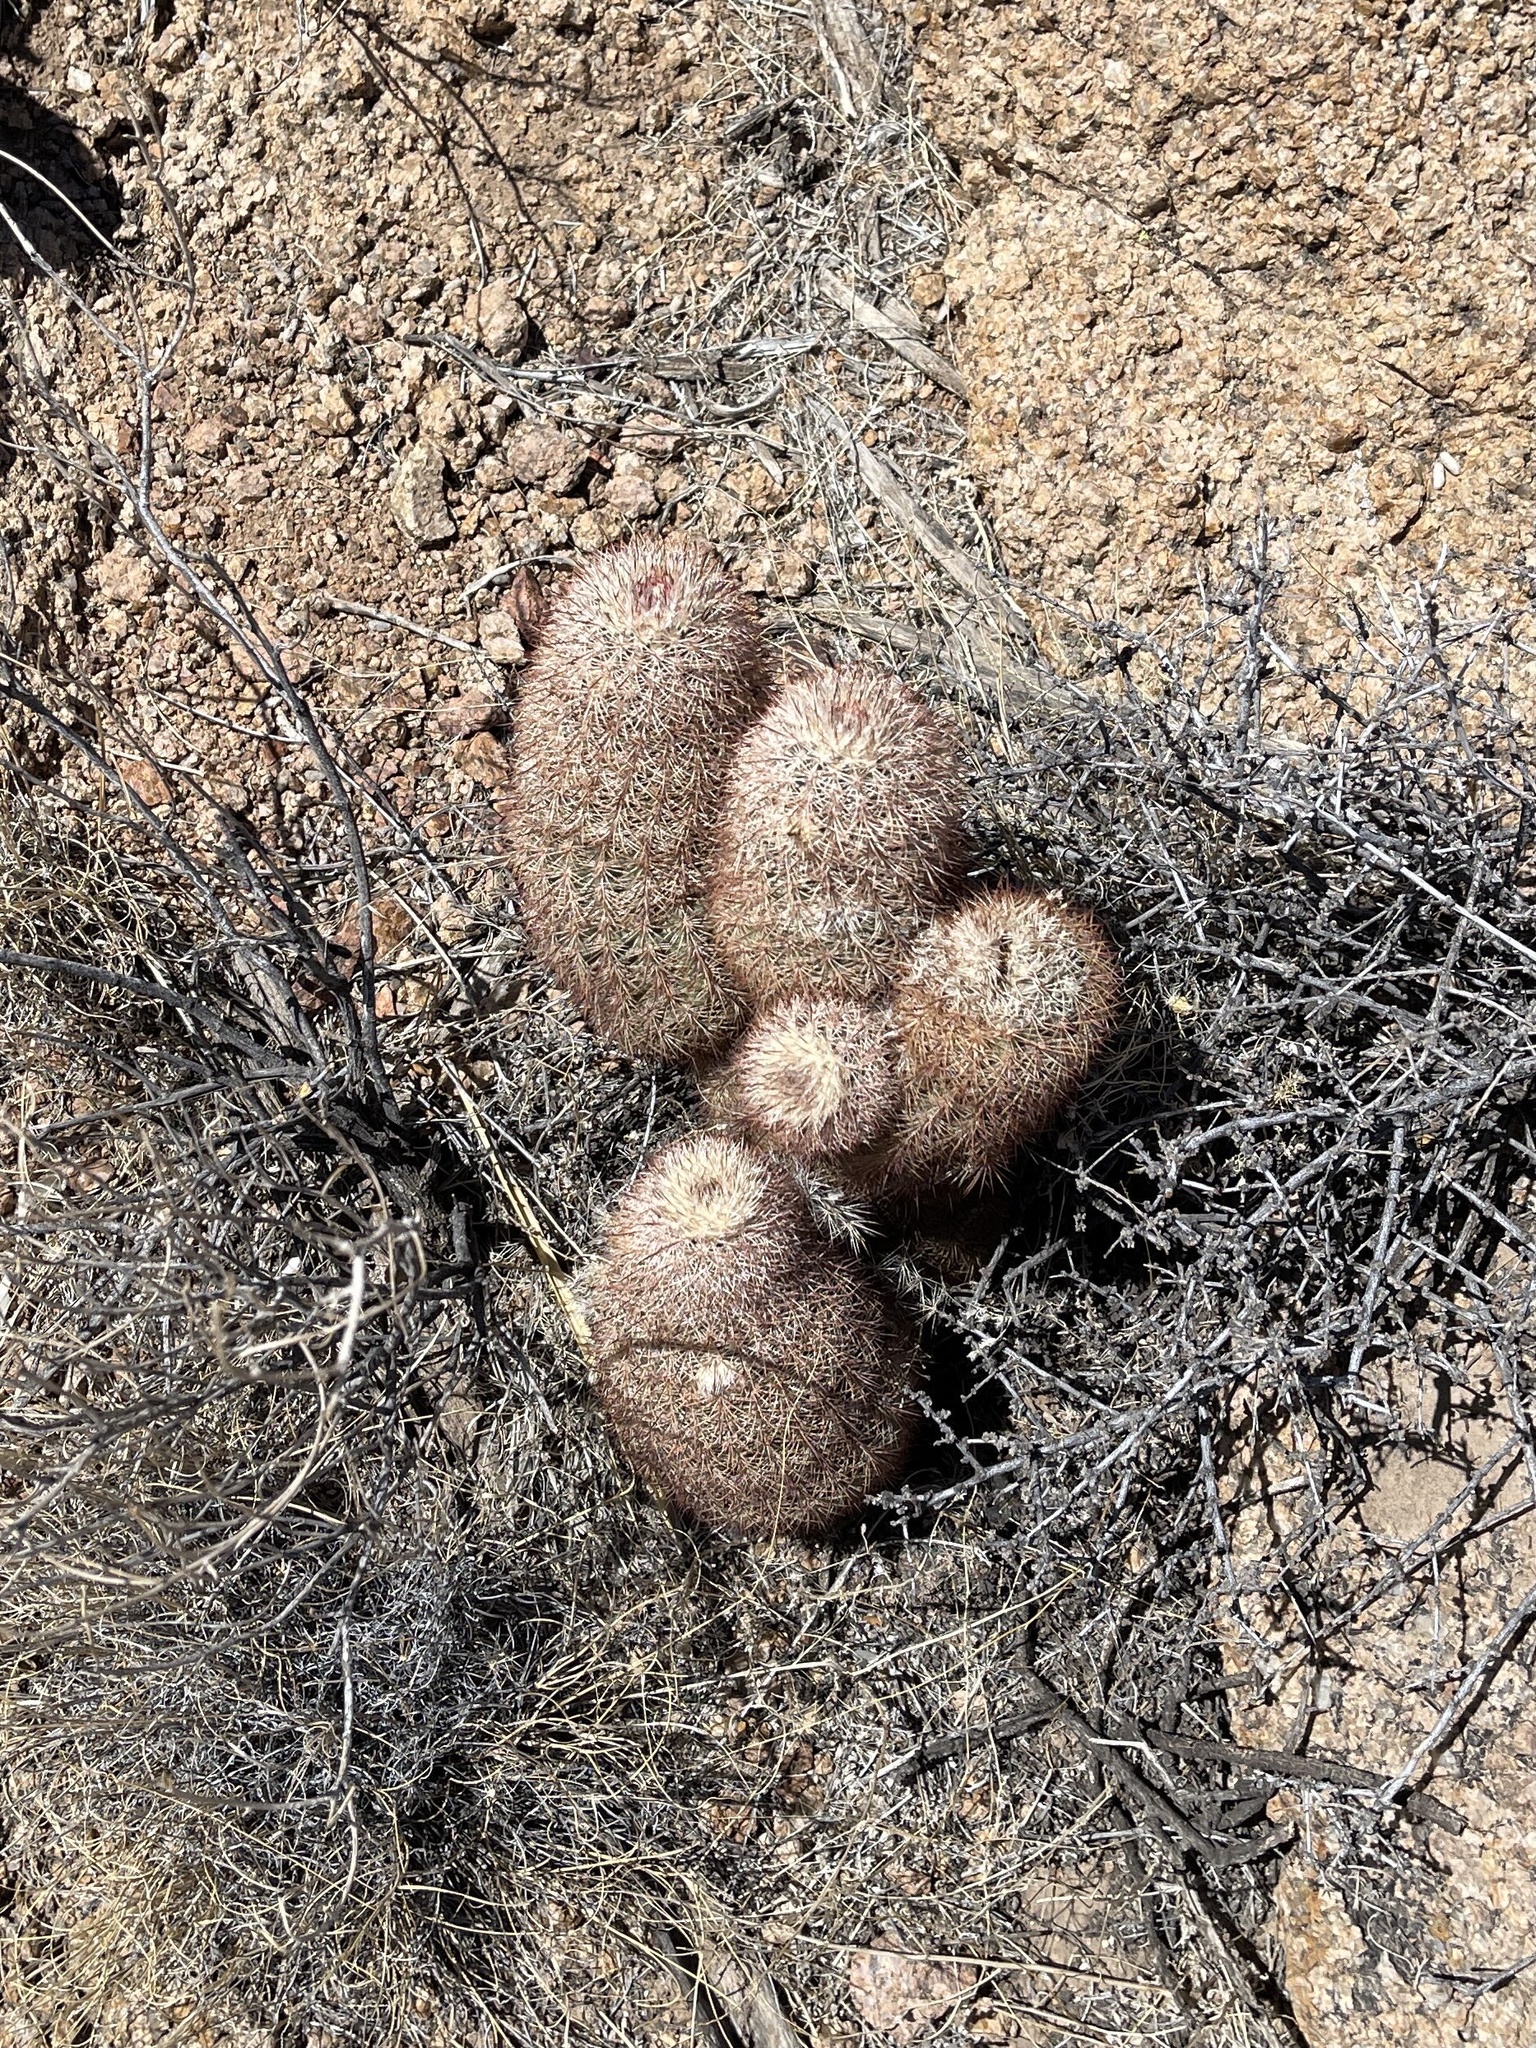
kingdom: Plantae
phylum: Tracheophyta
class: Magnoliopsida
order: Caryophyllales
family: Cactaceae
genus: Echinocereus
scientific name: Echinocereus dasyacanthus
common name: Spiny hedgehog cactus
